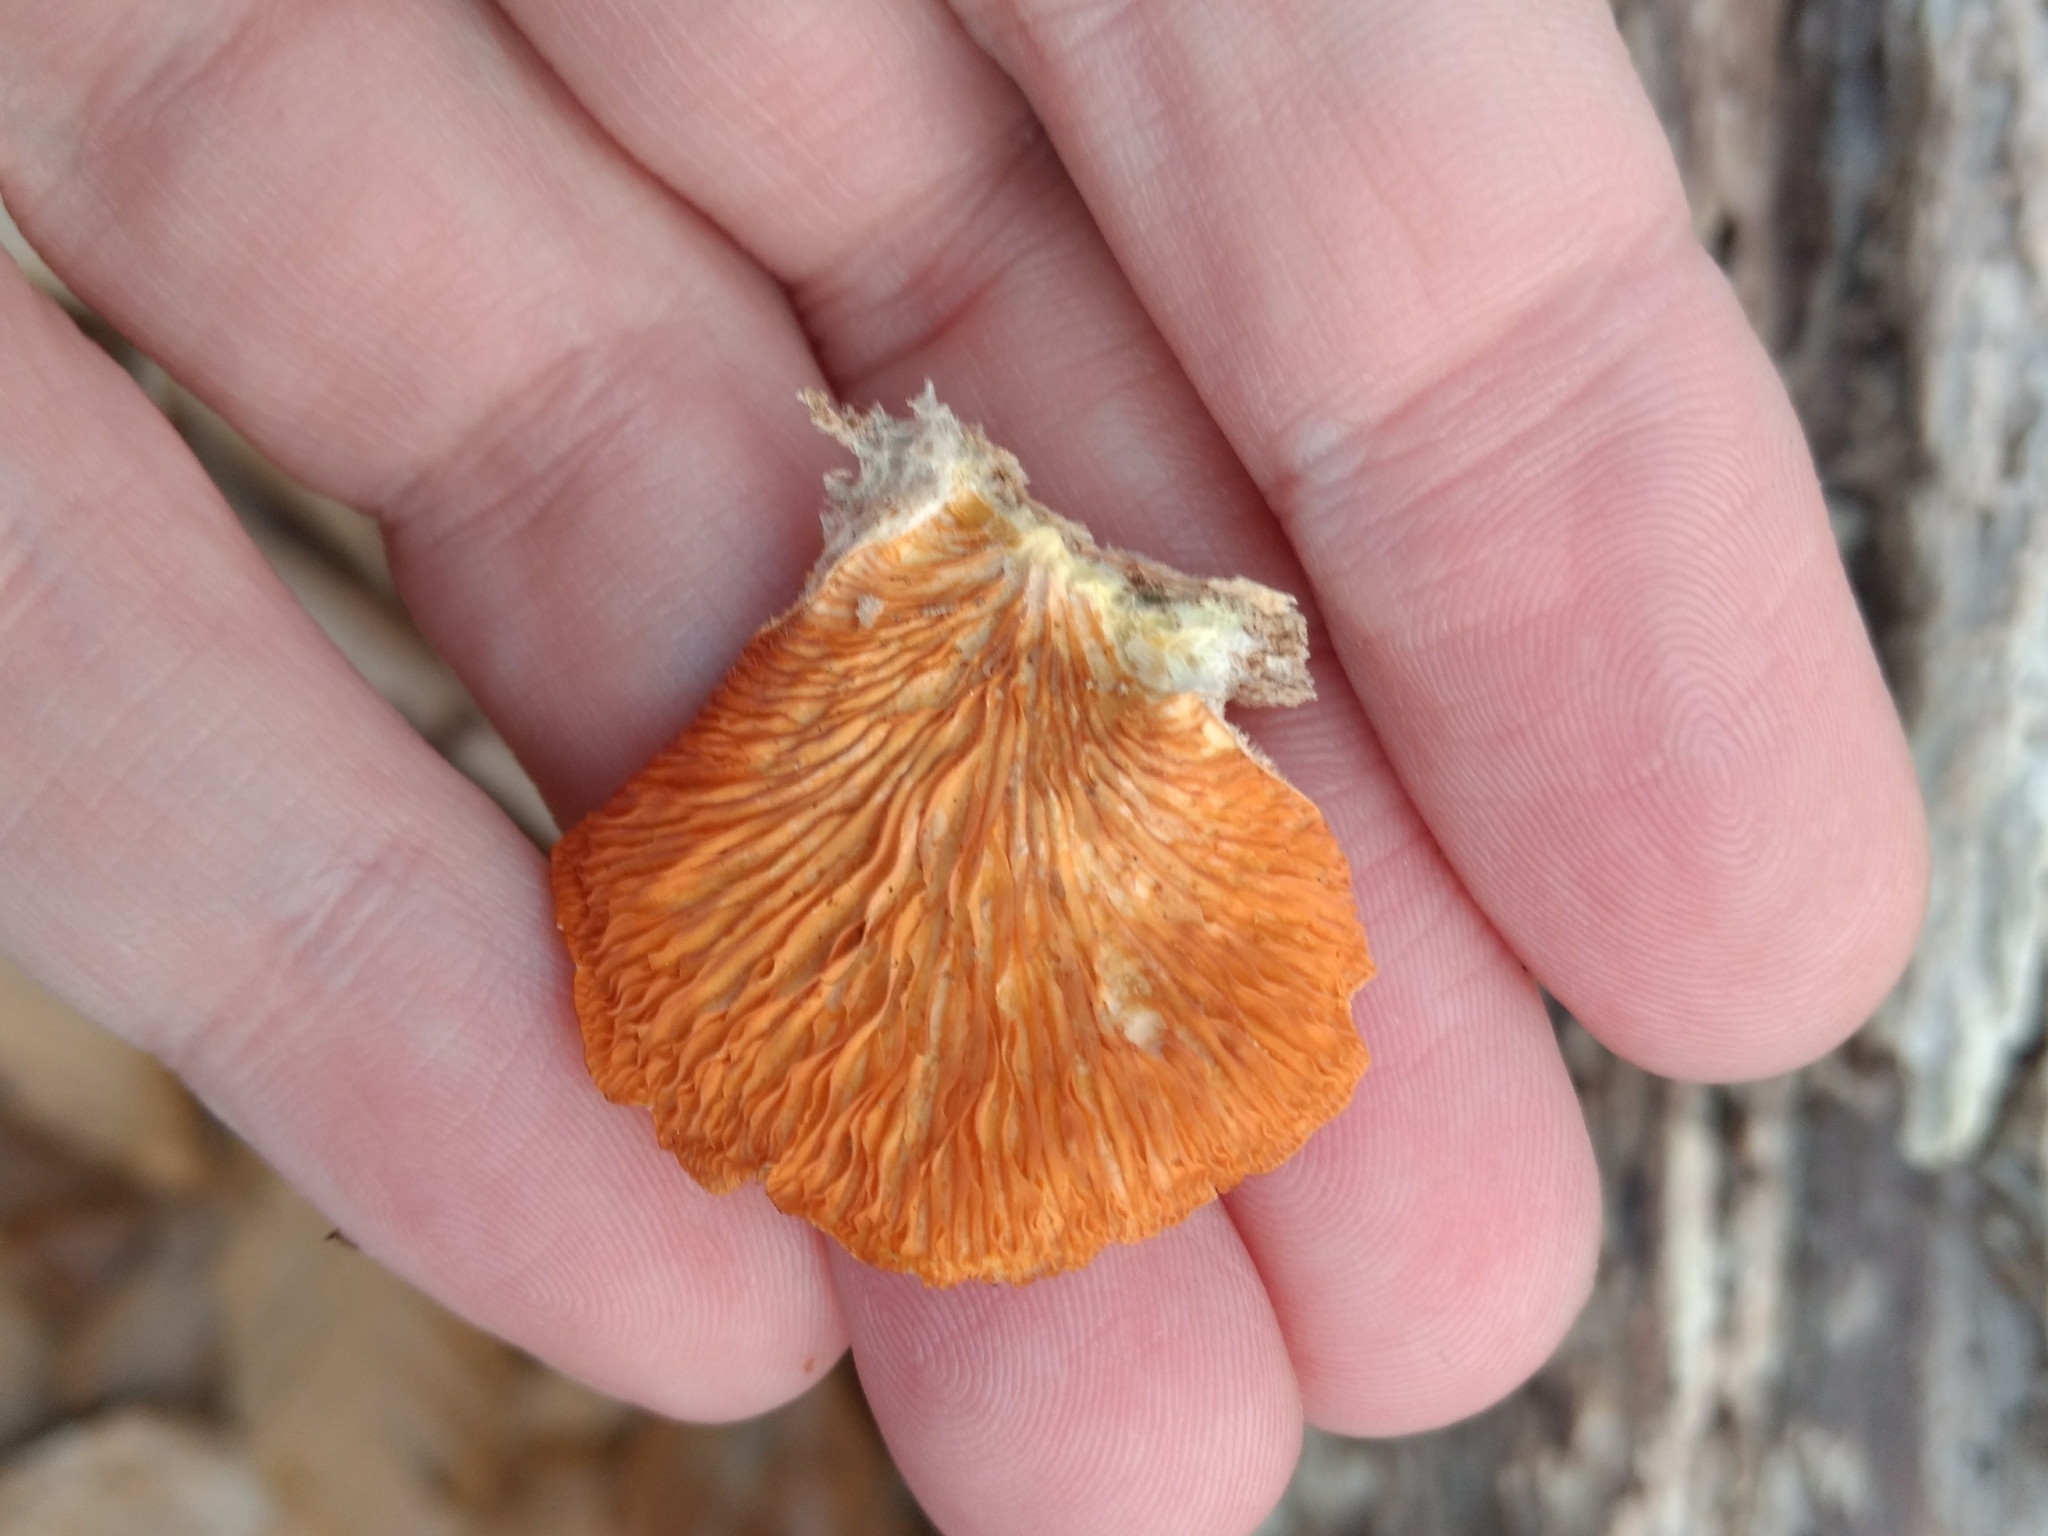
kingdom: Fungi
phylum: Basidiomycota
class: Agaricomycetes
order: Agaricales
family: Phyllotopsidaceae
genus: Phyllotopsis
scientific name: Phyllotopsis nidulans
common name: Orange mock oyster
